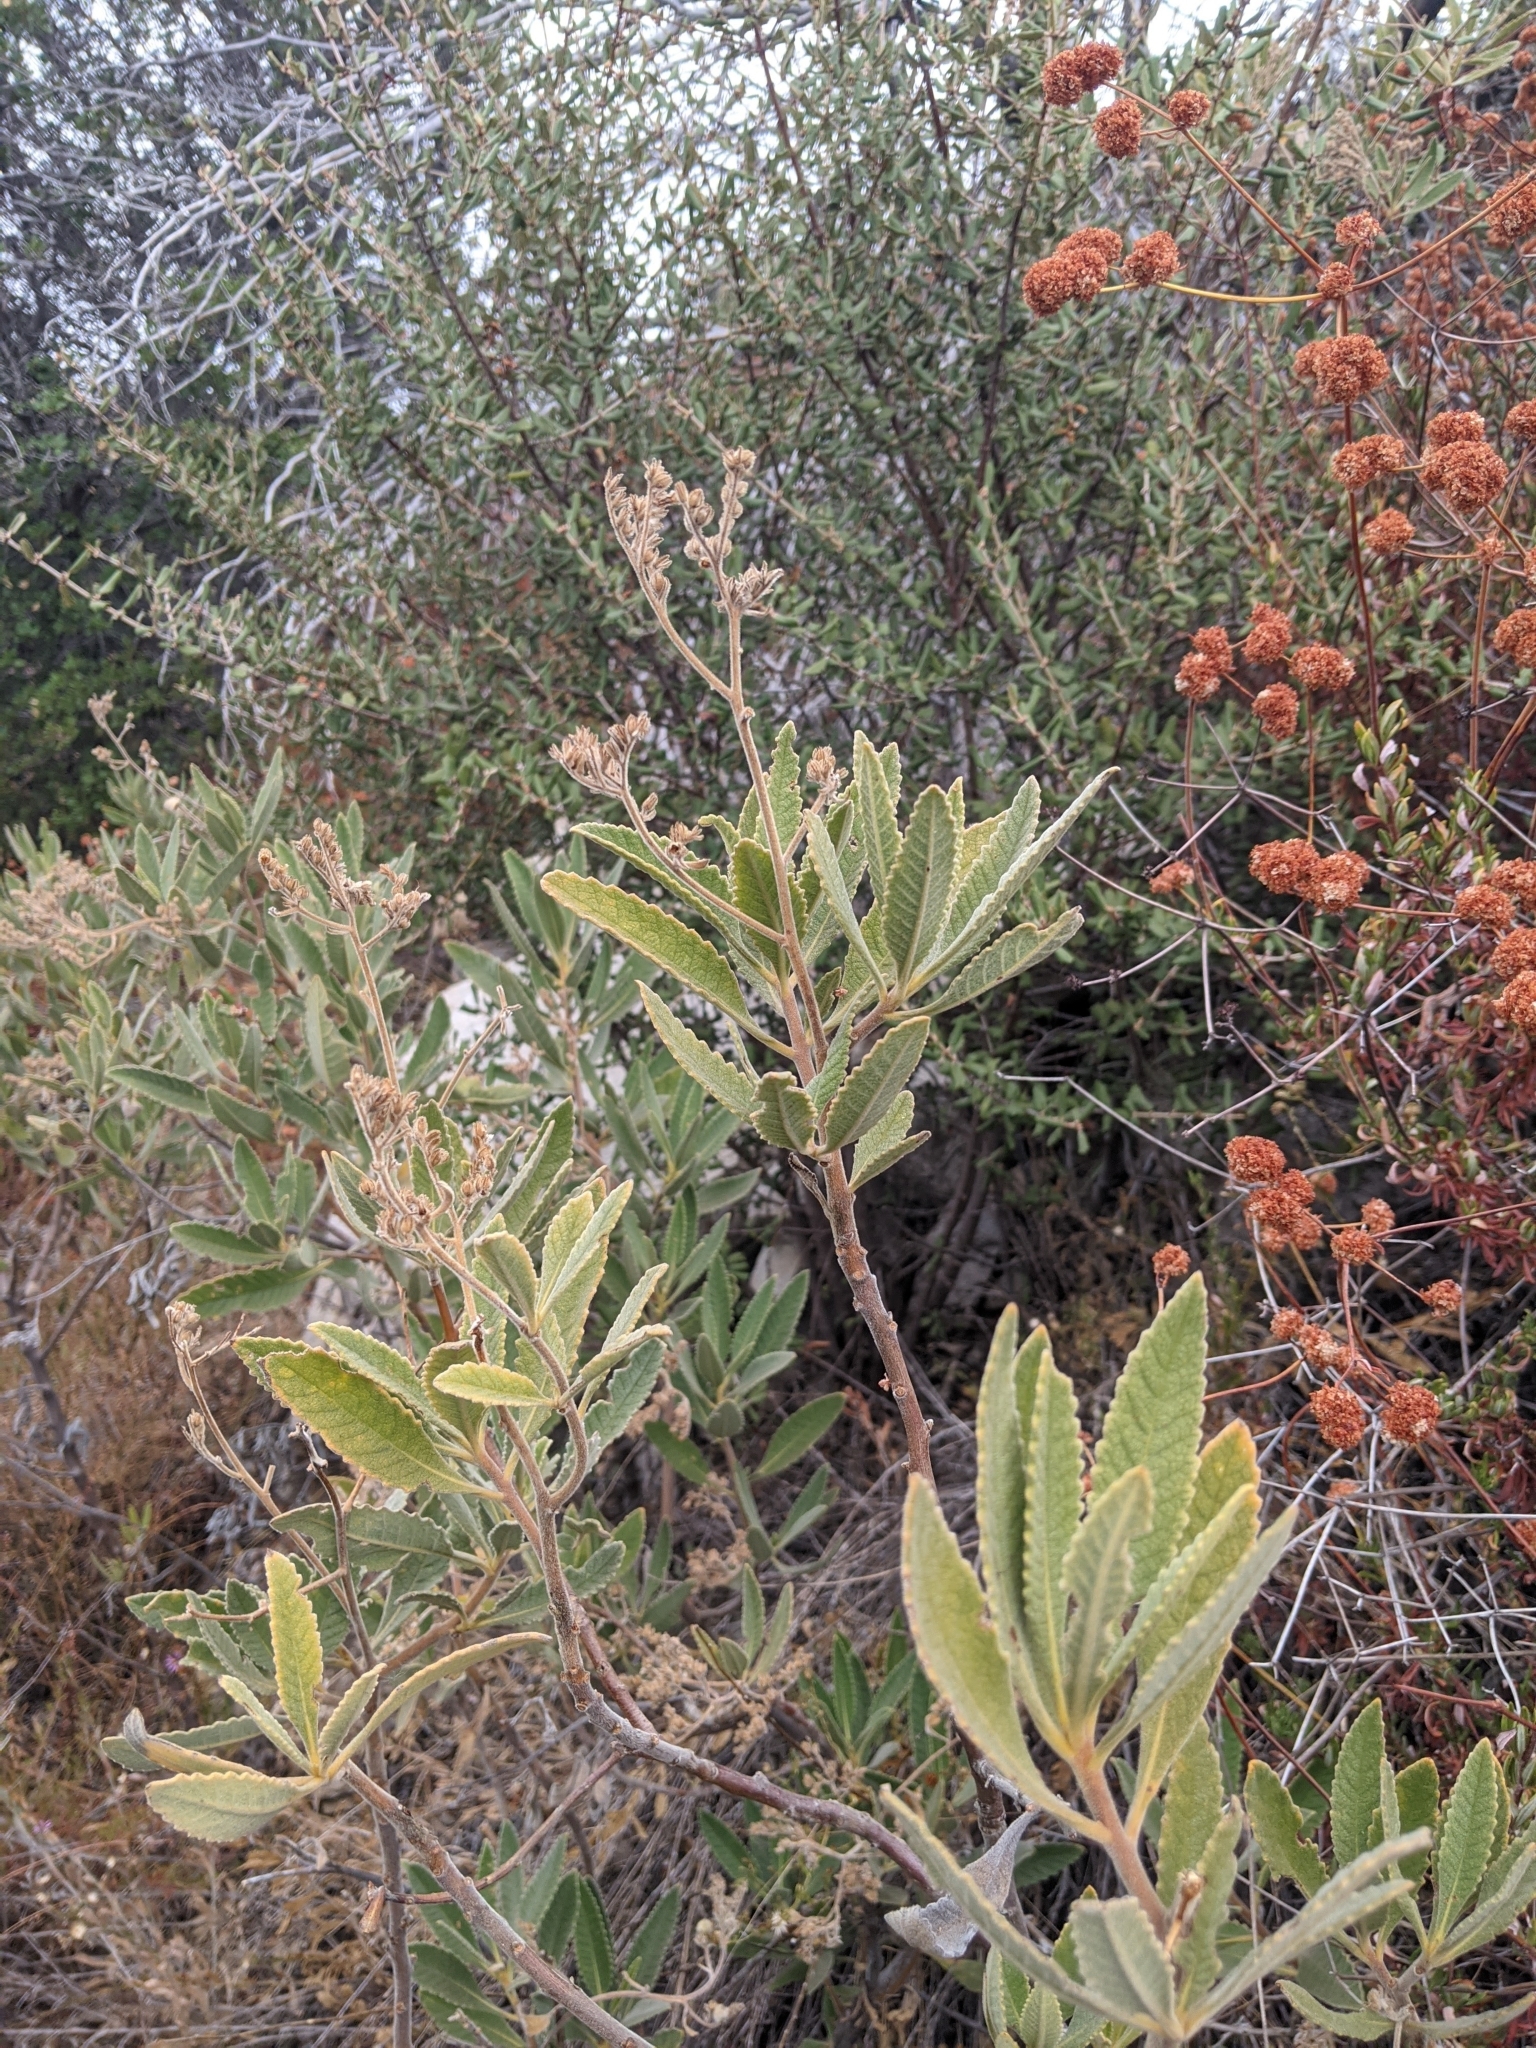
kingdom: Plantae
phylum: Tracheophyta
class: Magnoliopsida
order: Boraginales
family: Namaceae
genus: Eriodictyon
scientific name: Eriodictyon crassifolium
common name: Thick-leaf yerba-santa
